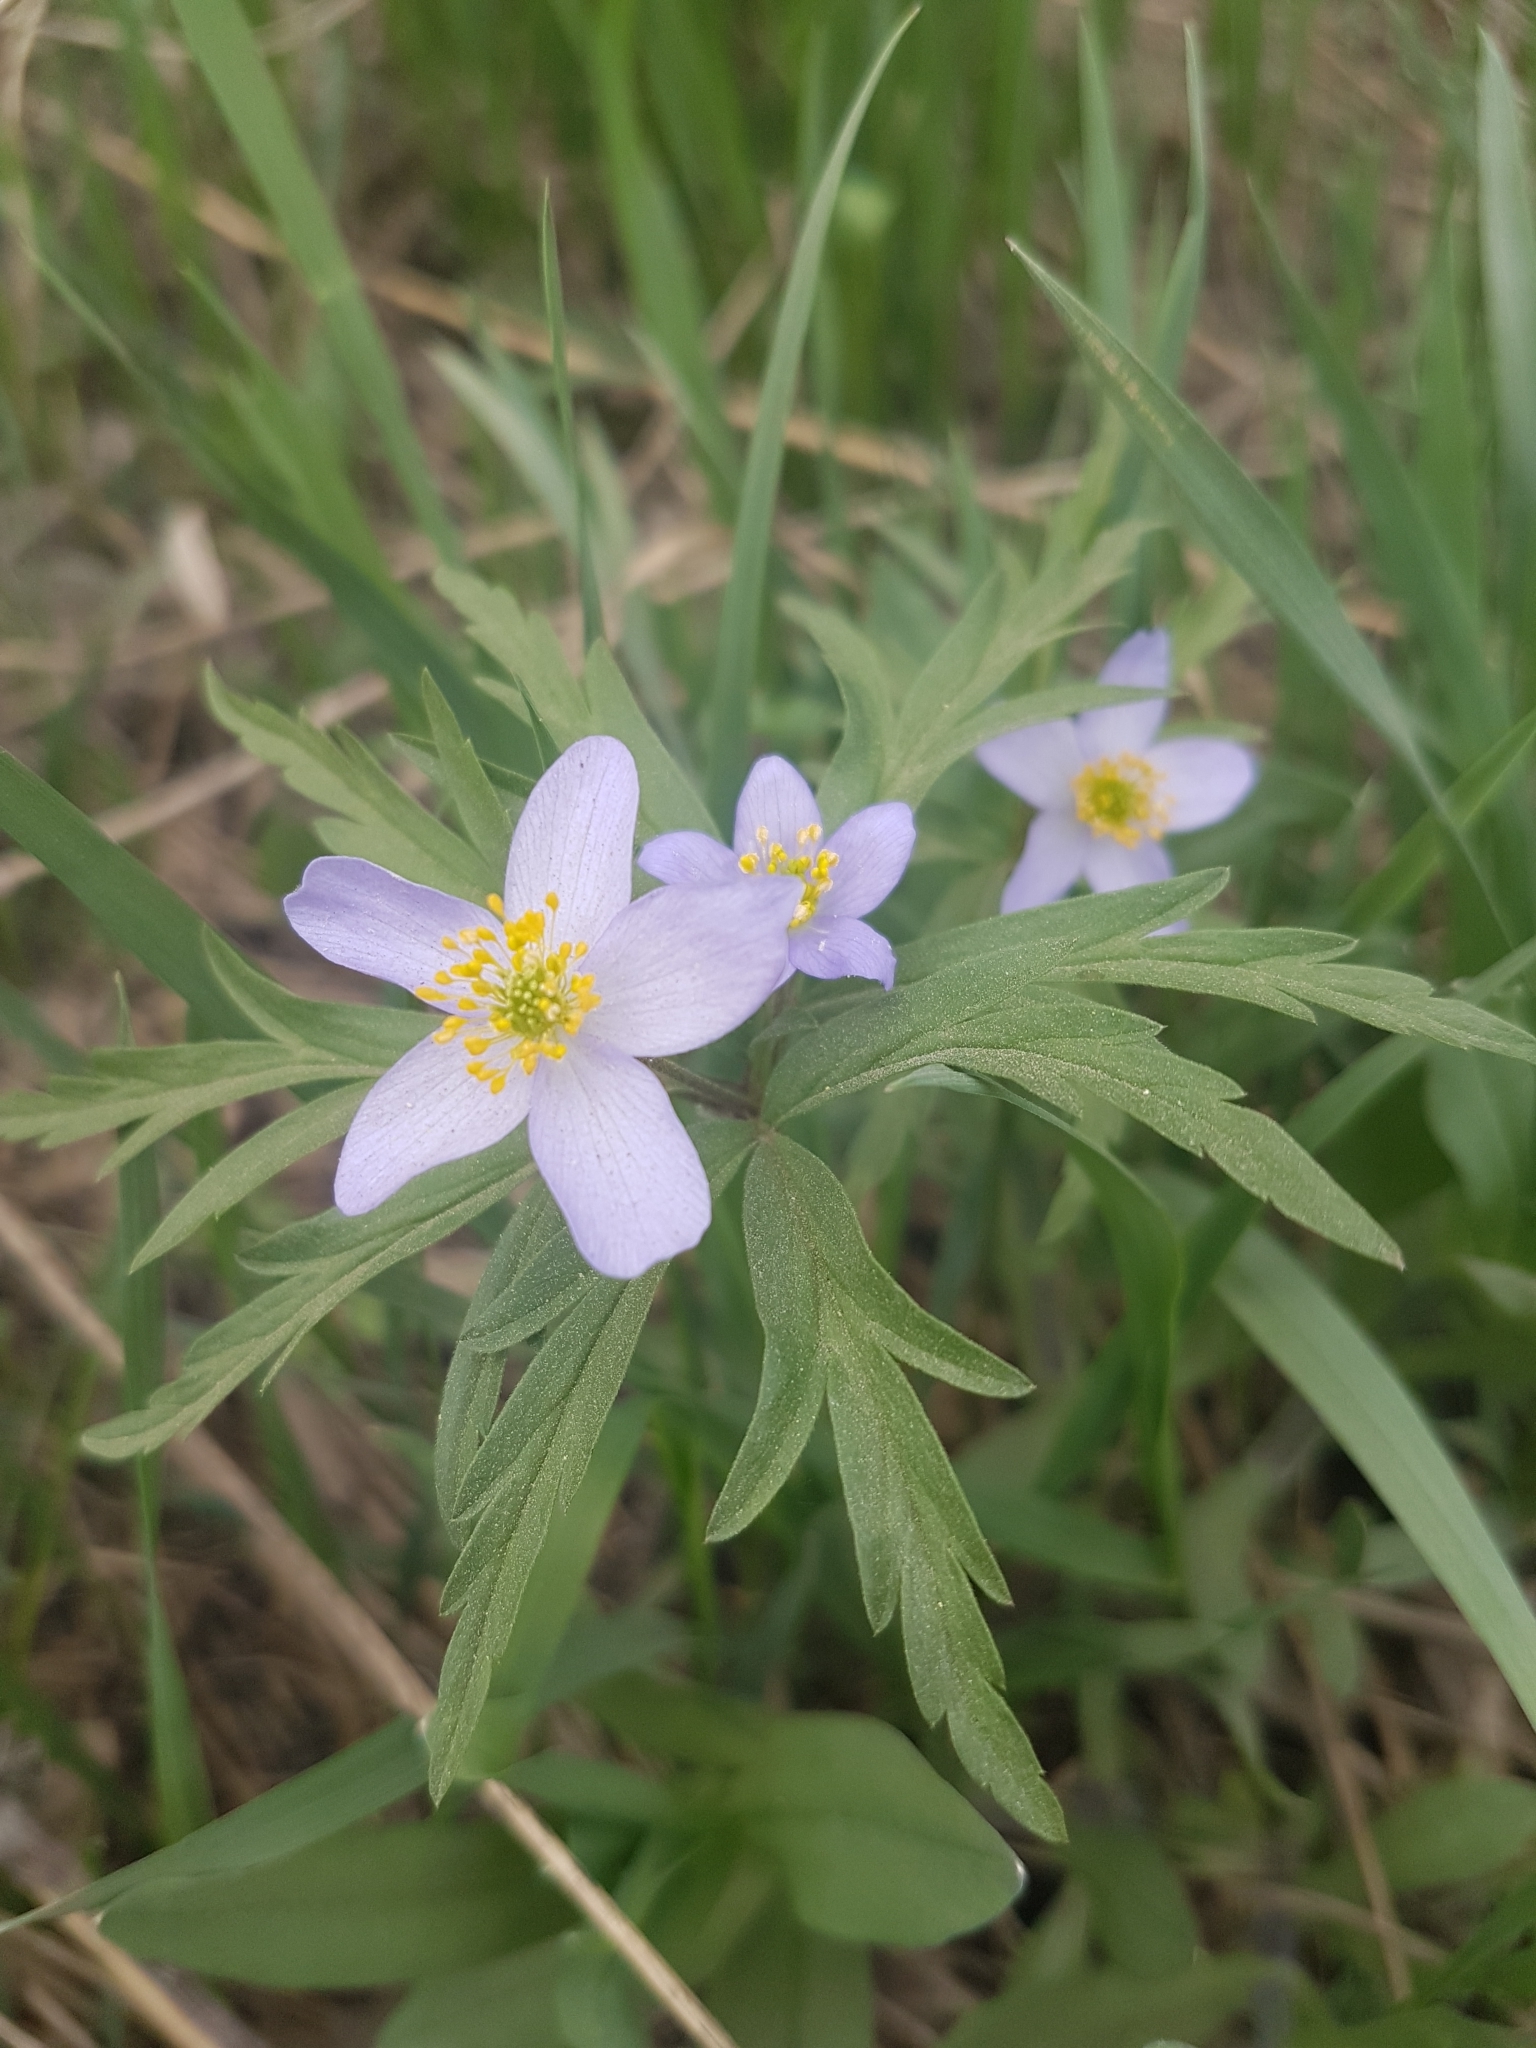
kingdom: Plantae
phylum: Tracheophyta
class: Magnoliopsida
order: Ranunculales
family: Ranunculaceae
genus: Anemone
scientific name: Anemone caerulea
